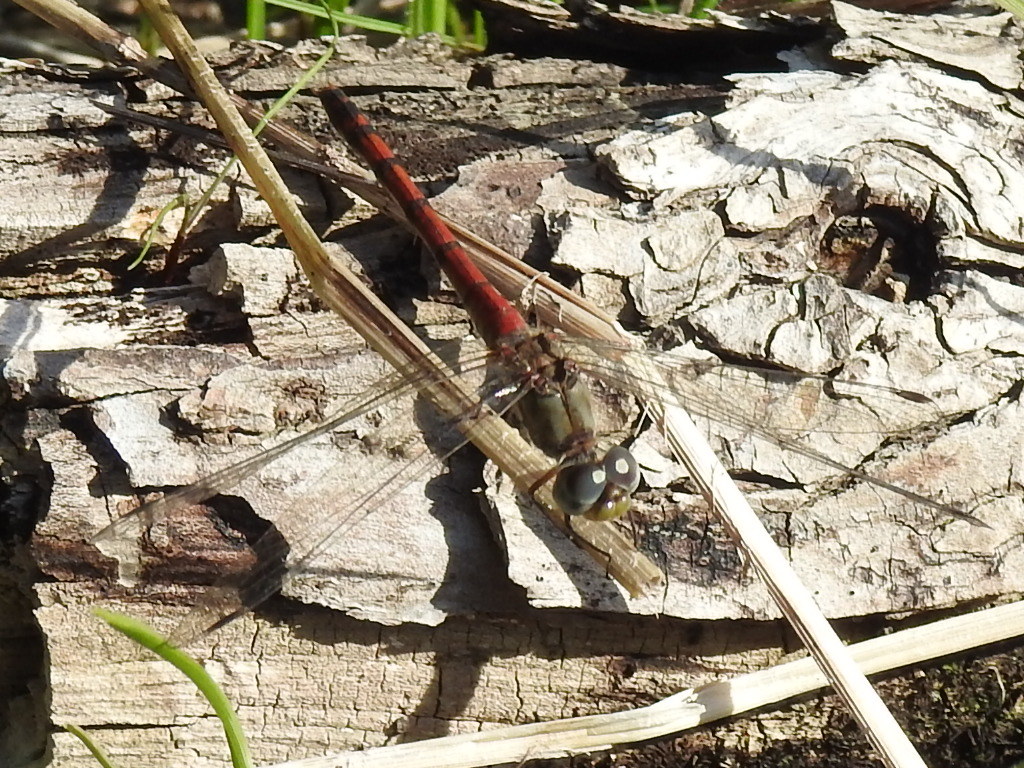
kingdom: Animalia
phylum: Arthropoda
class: Insecta
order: Odonata
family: Libellulidae
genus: Sympetrum
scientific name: Sympetrum ambiguum
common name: Blue-faced meadowhawk
